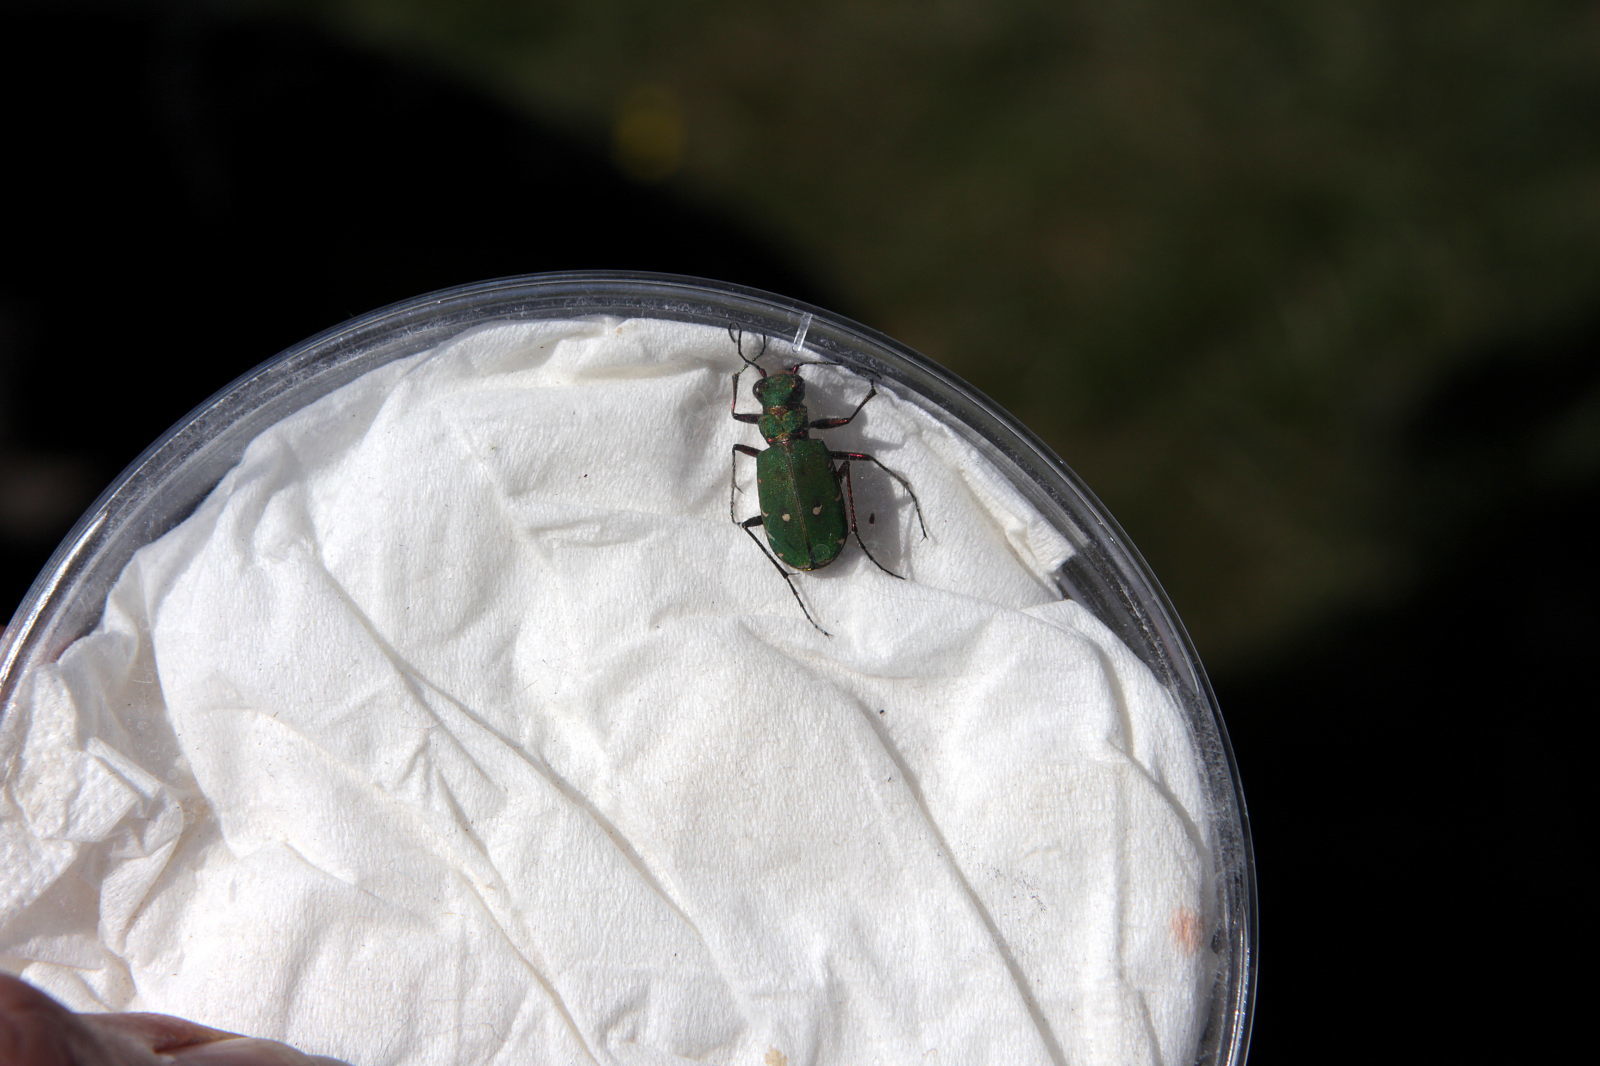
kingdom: Animalia
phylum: Arthropoda
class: Insecta
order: Coleoptera
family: Carabidae
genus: Cicindela
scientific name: Cicindela campestris
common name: Common tiger beetle
